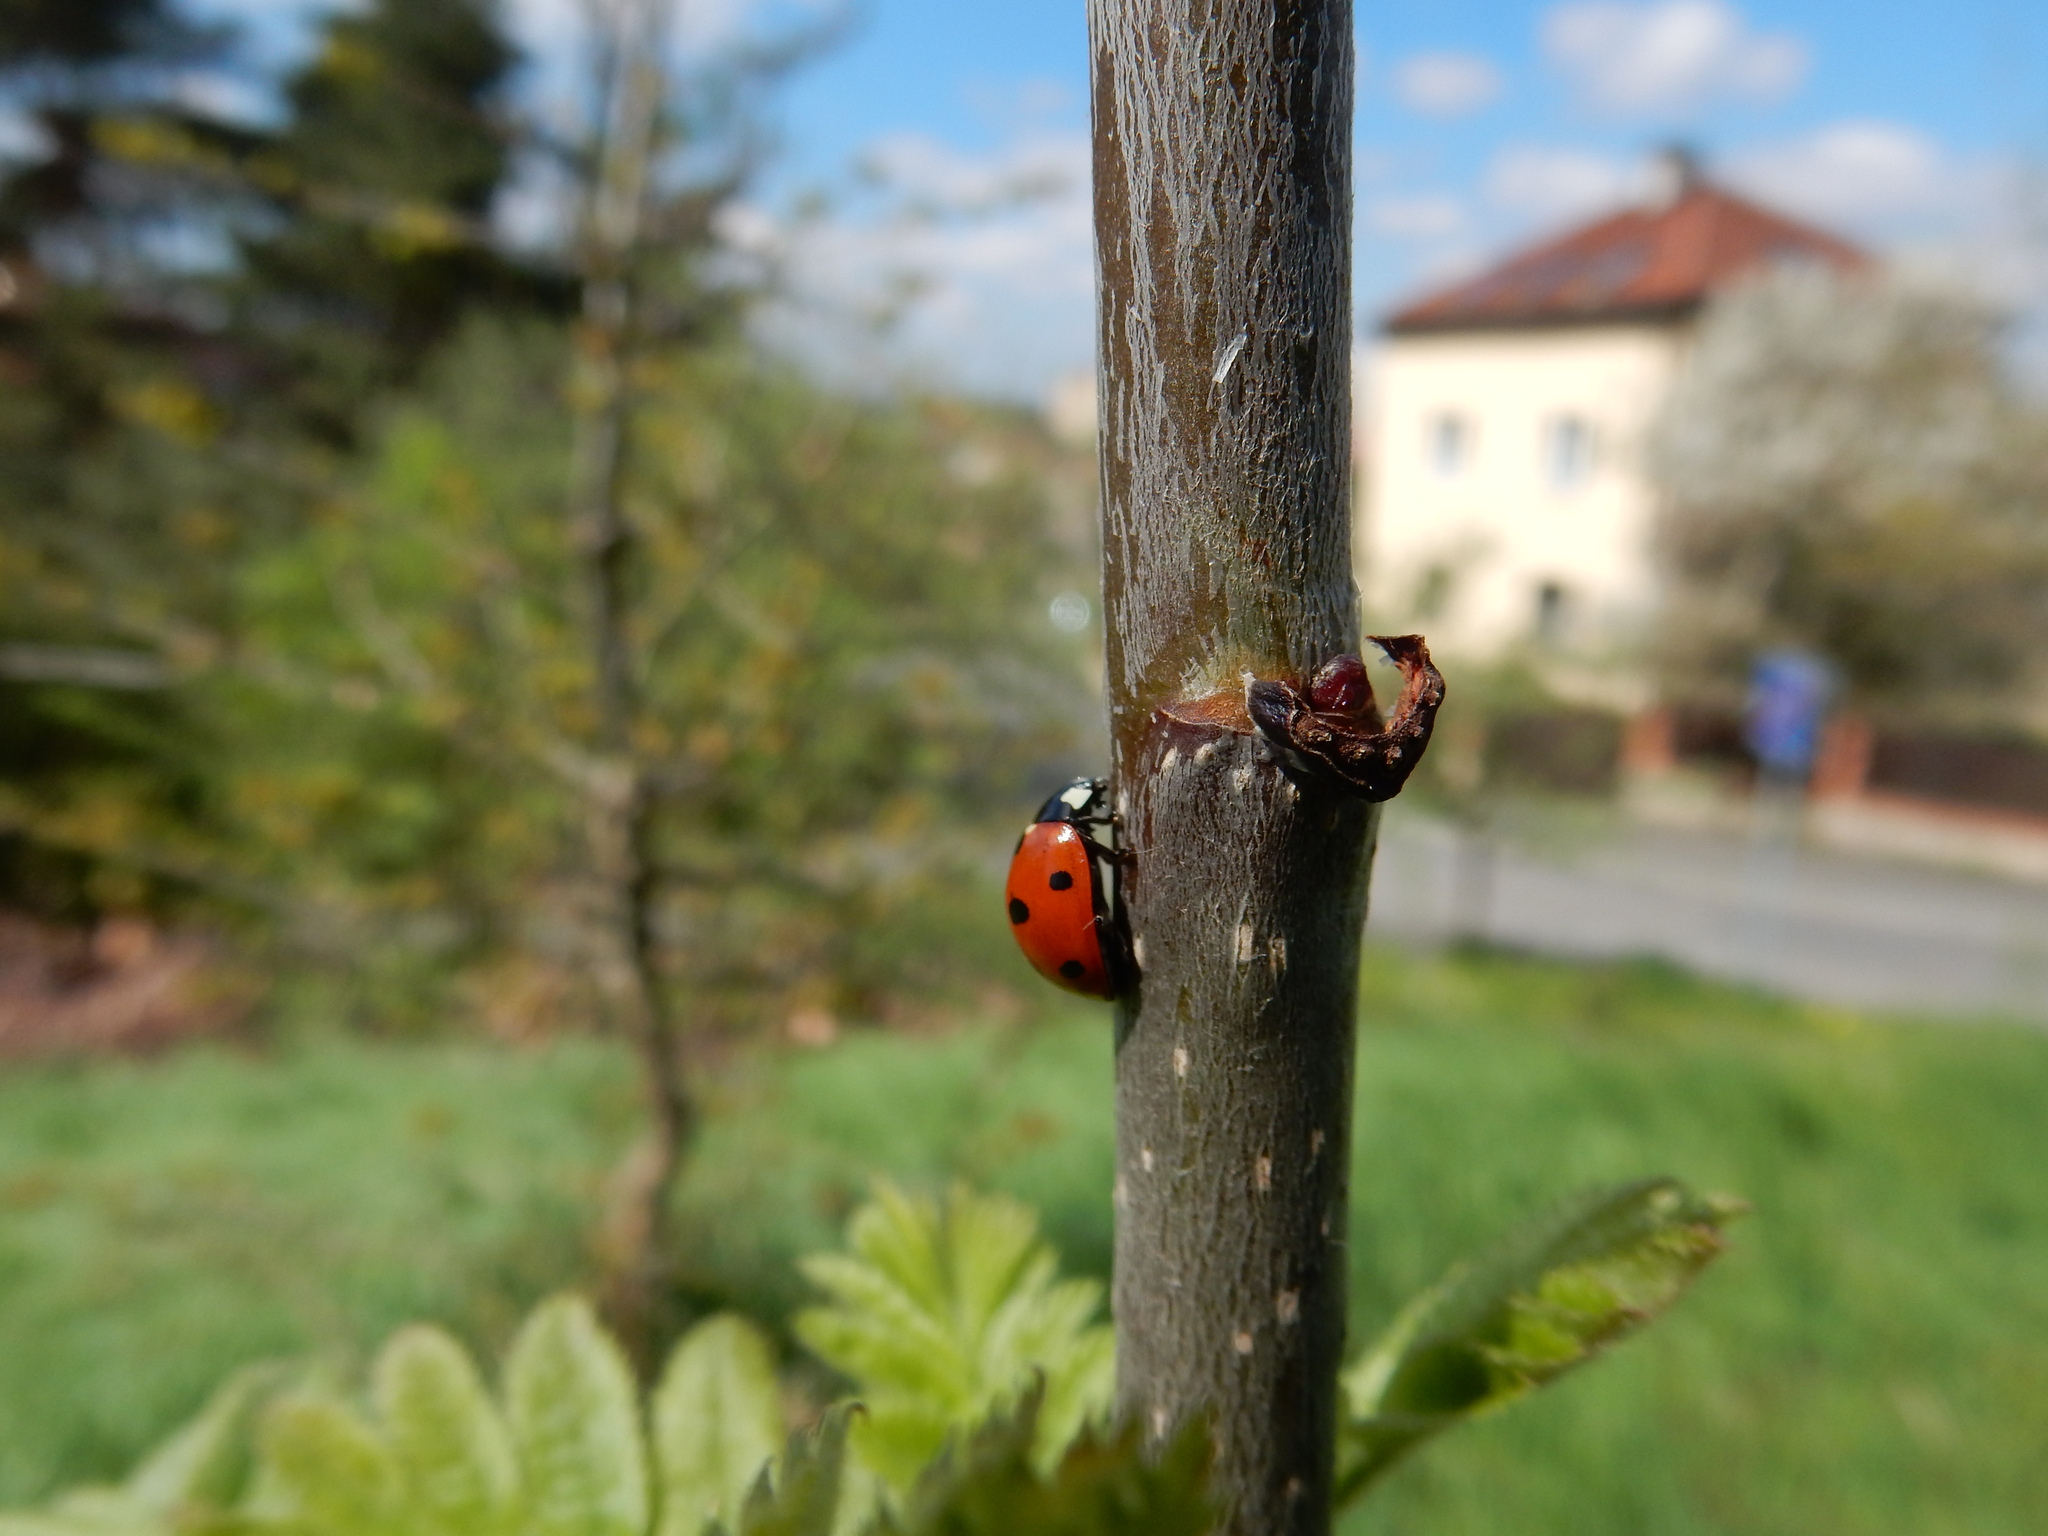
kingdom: Animalia
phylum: Arthropoda
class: Insecta
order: Coleoptera
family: Coccinellidae
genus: Coccinella
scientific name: Coccinella septempunctata
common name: Sevenspotted lady beetle
